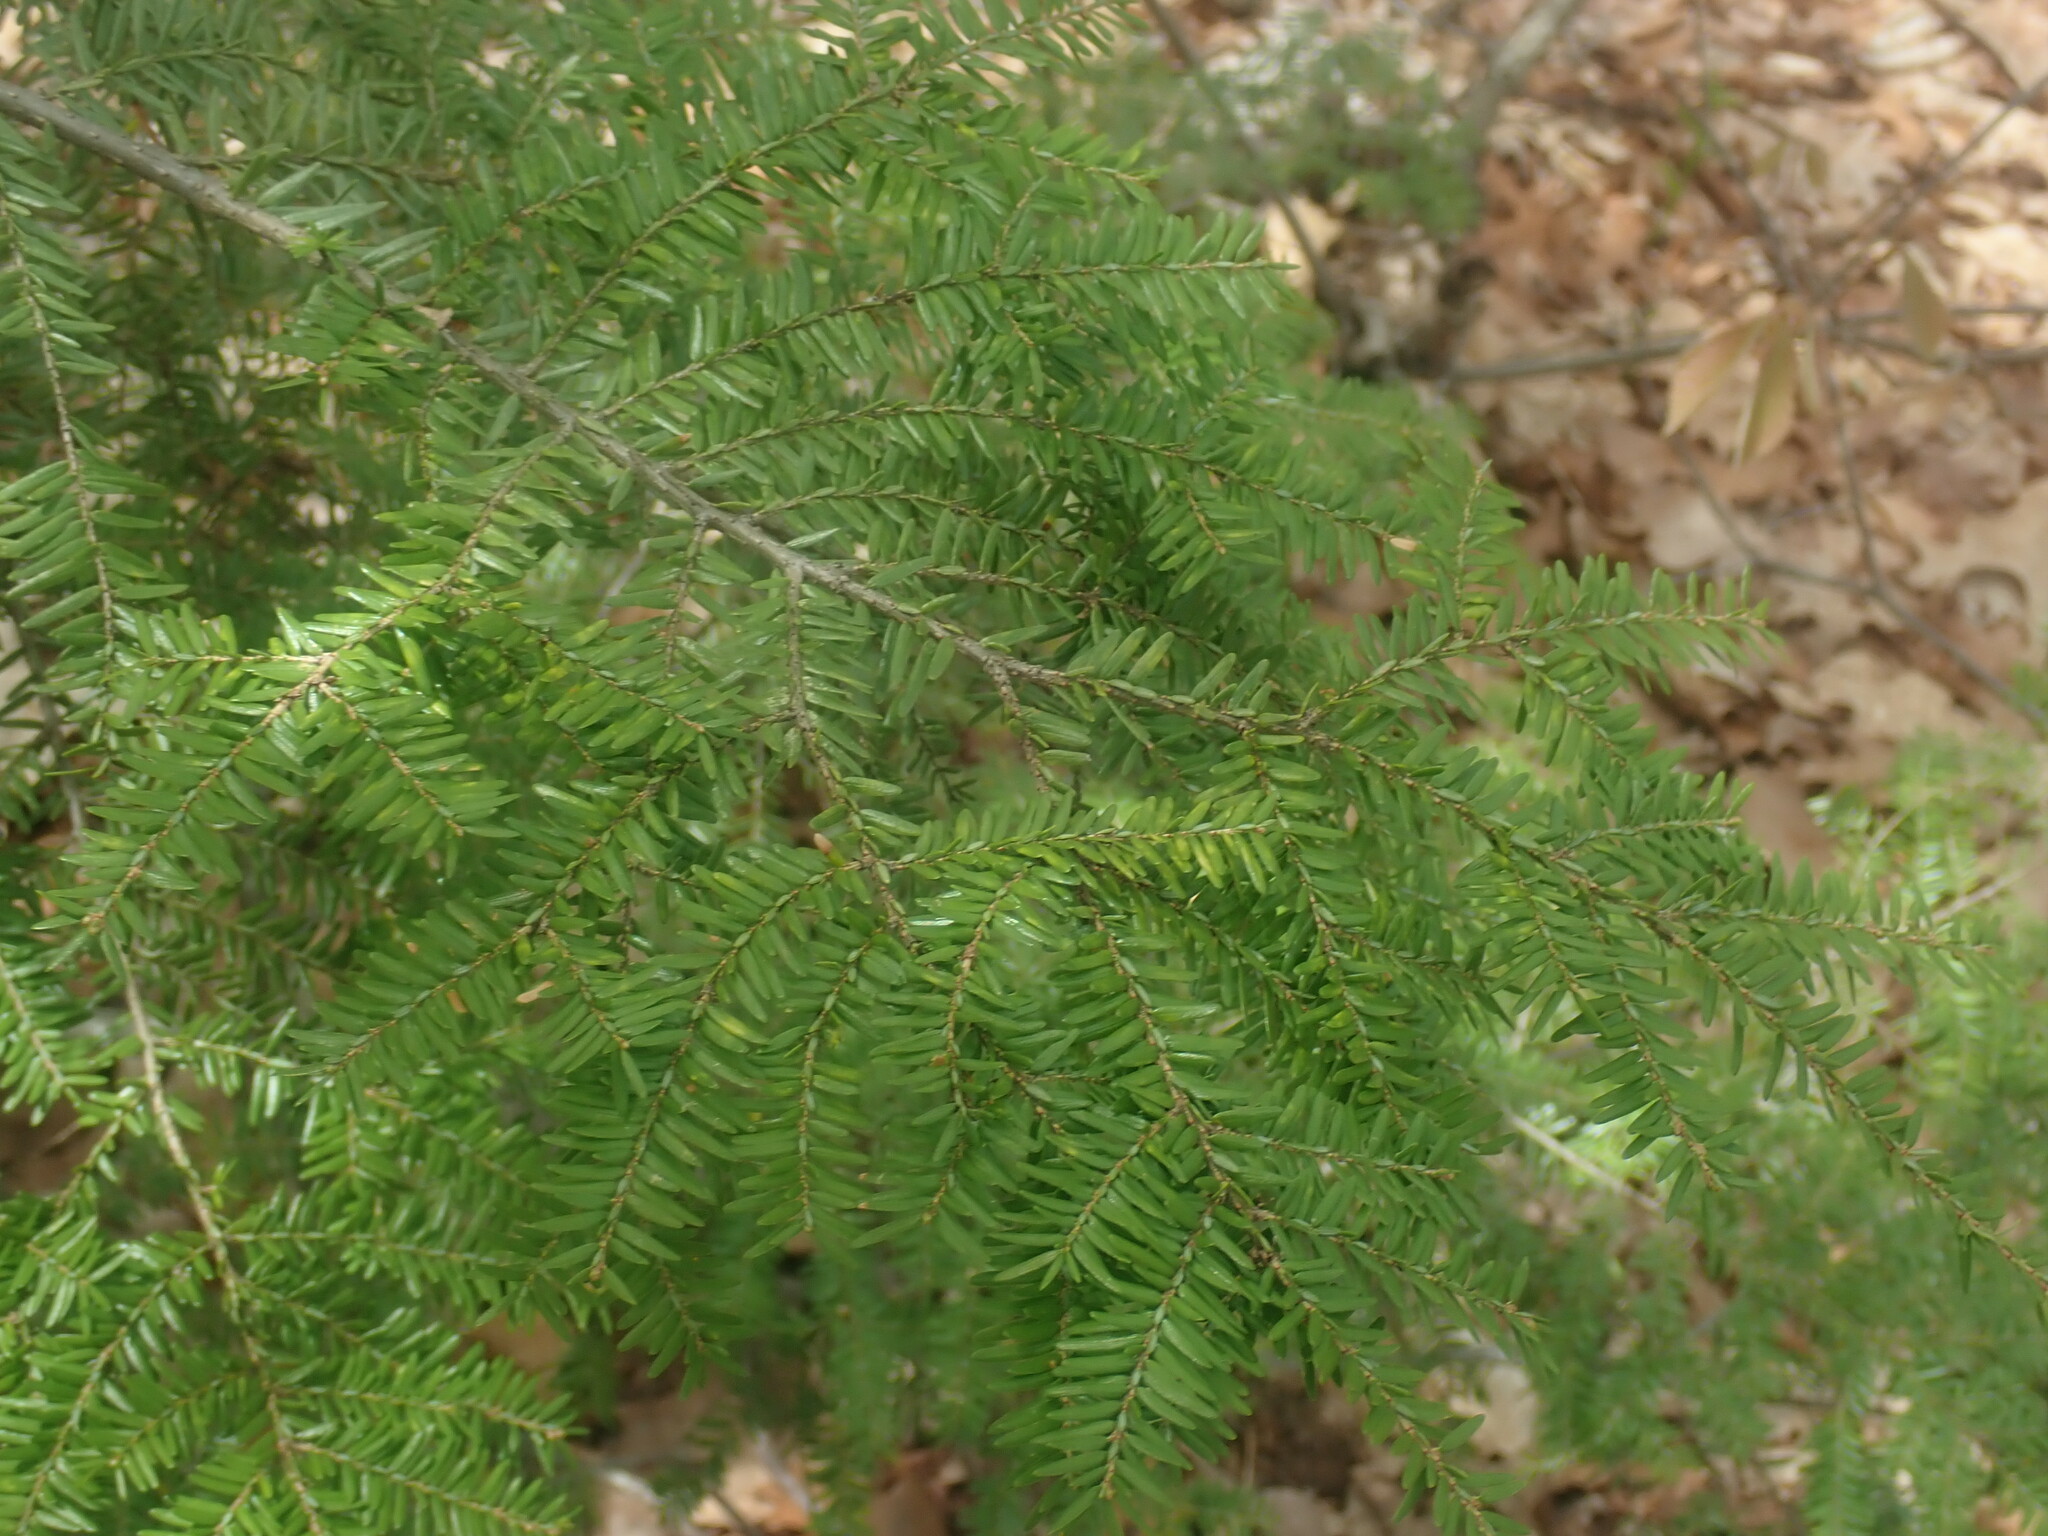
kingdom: Plantae
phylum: Tracheophyta
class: Pinopsida
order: Pinales
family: Pinaceae
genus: Tsuga
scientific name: Tsuga canadensis
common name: Eastern hemlock
